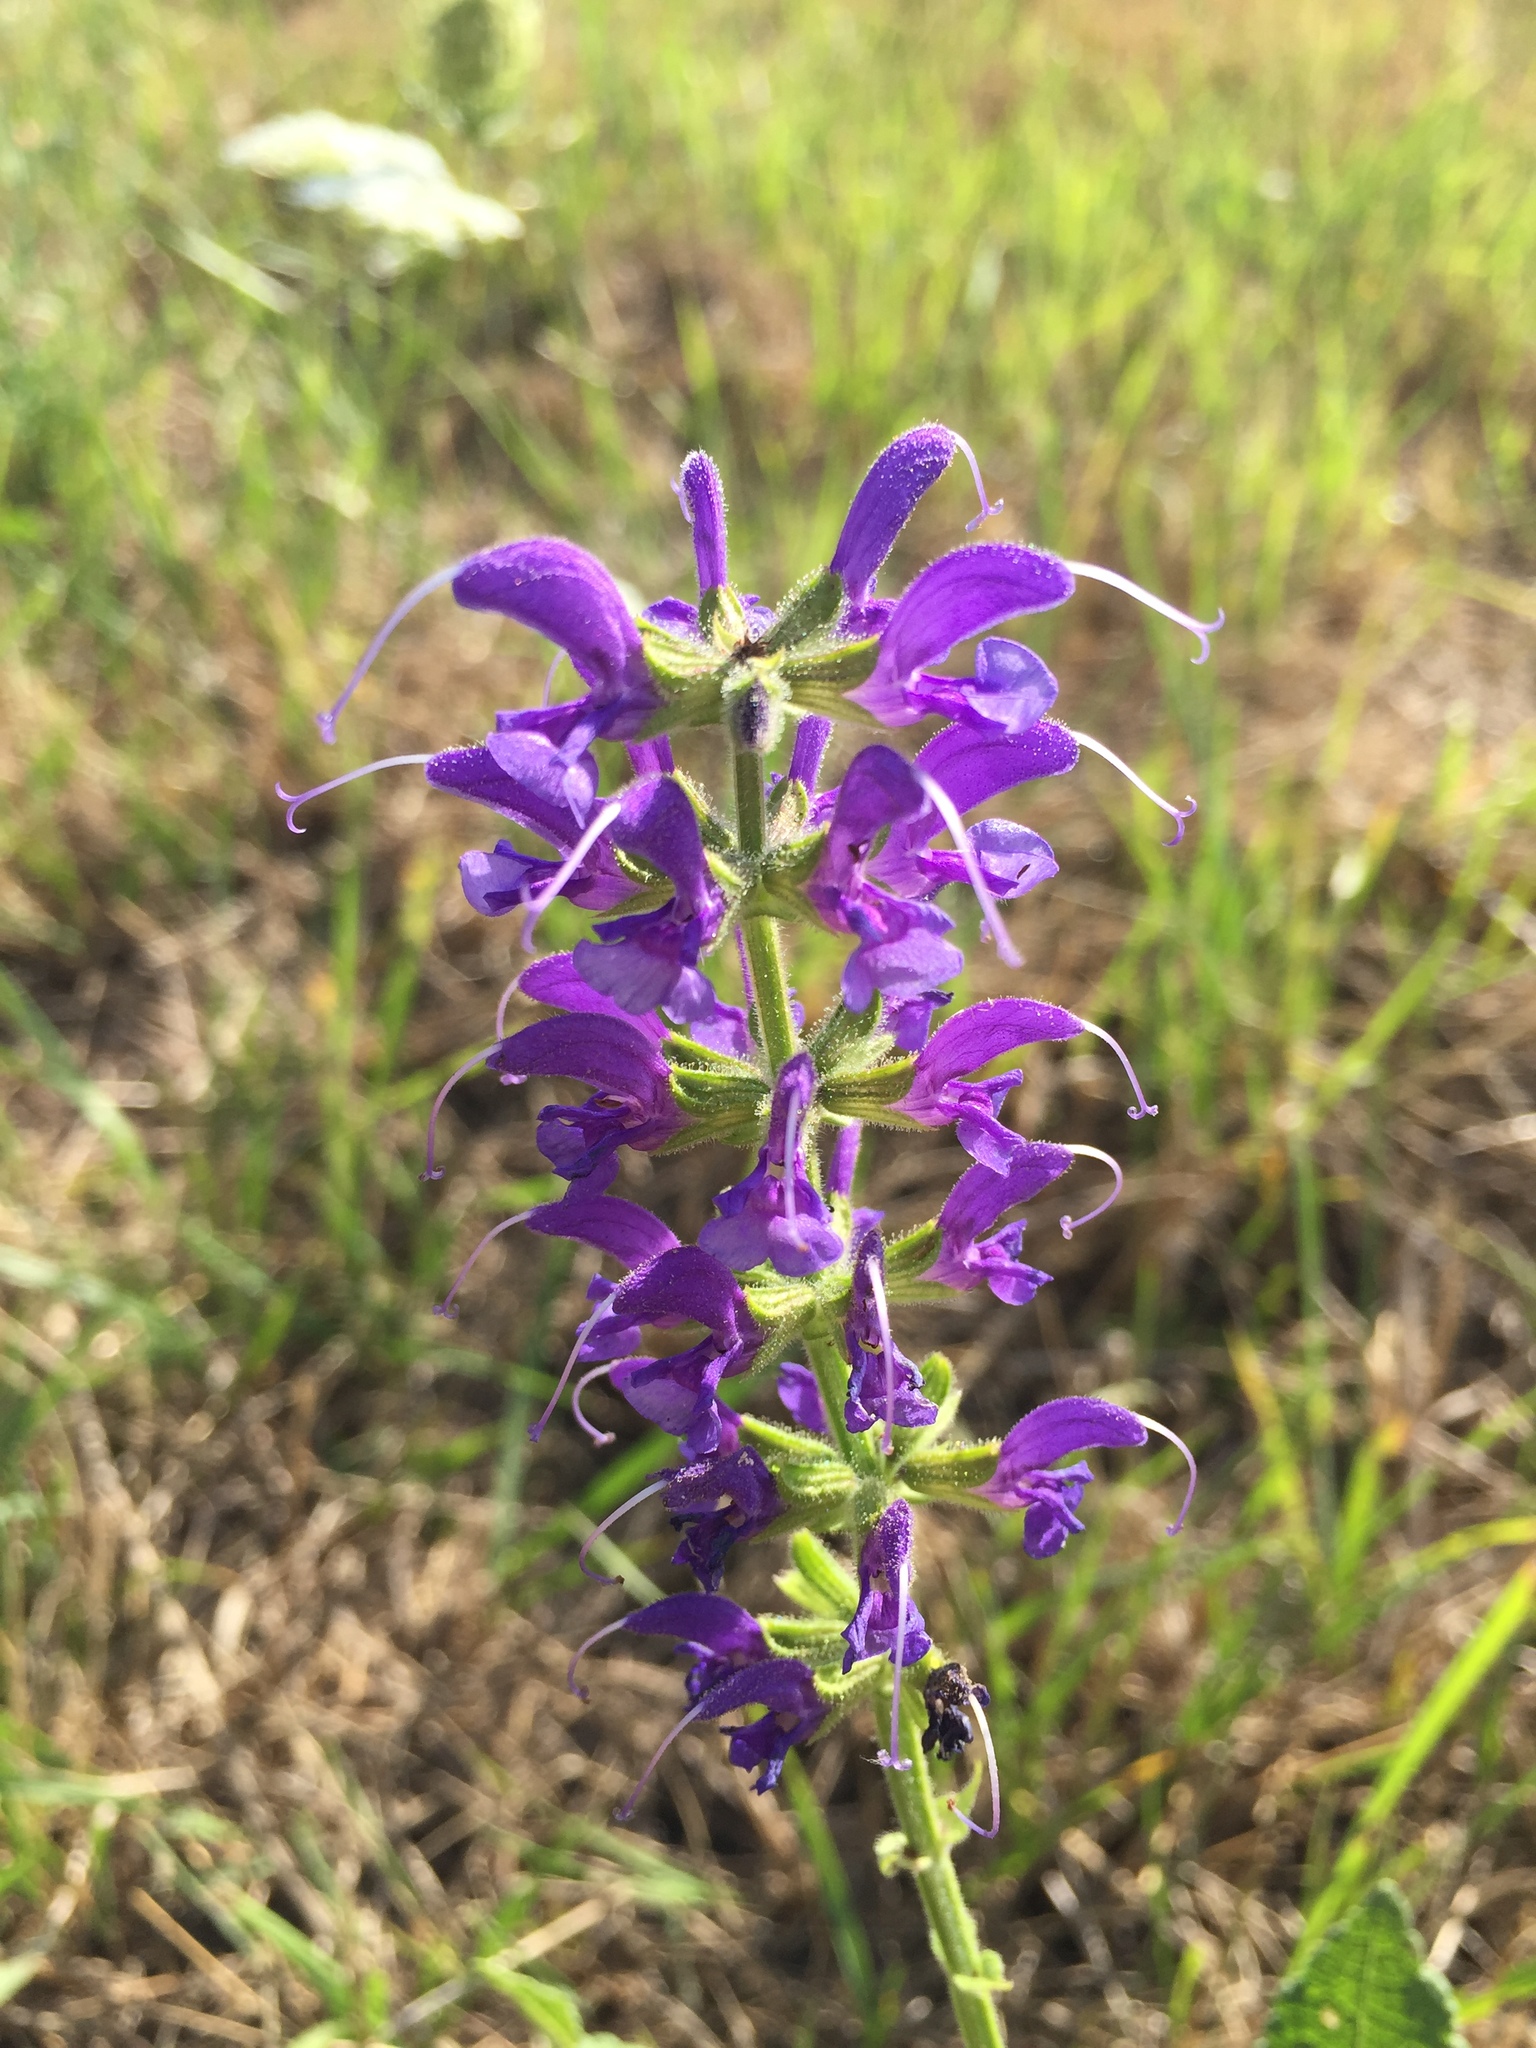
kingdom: Plantae
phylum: Tracheophyta
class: Magnoliopsida
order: Lamiales
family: Lamiaceae
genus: Salvia
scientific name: Salvia pratensis
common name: Meadow sage
